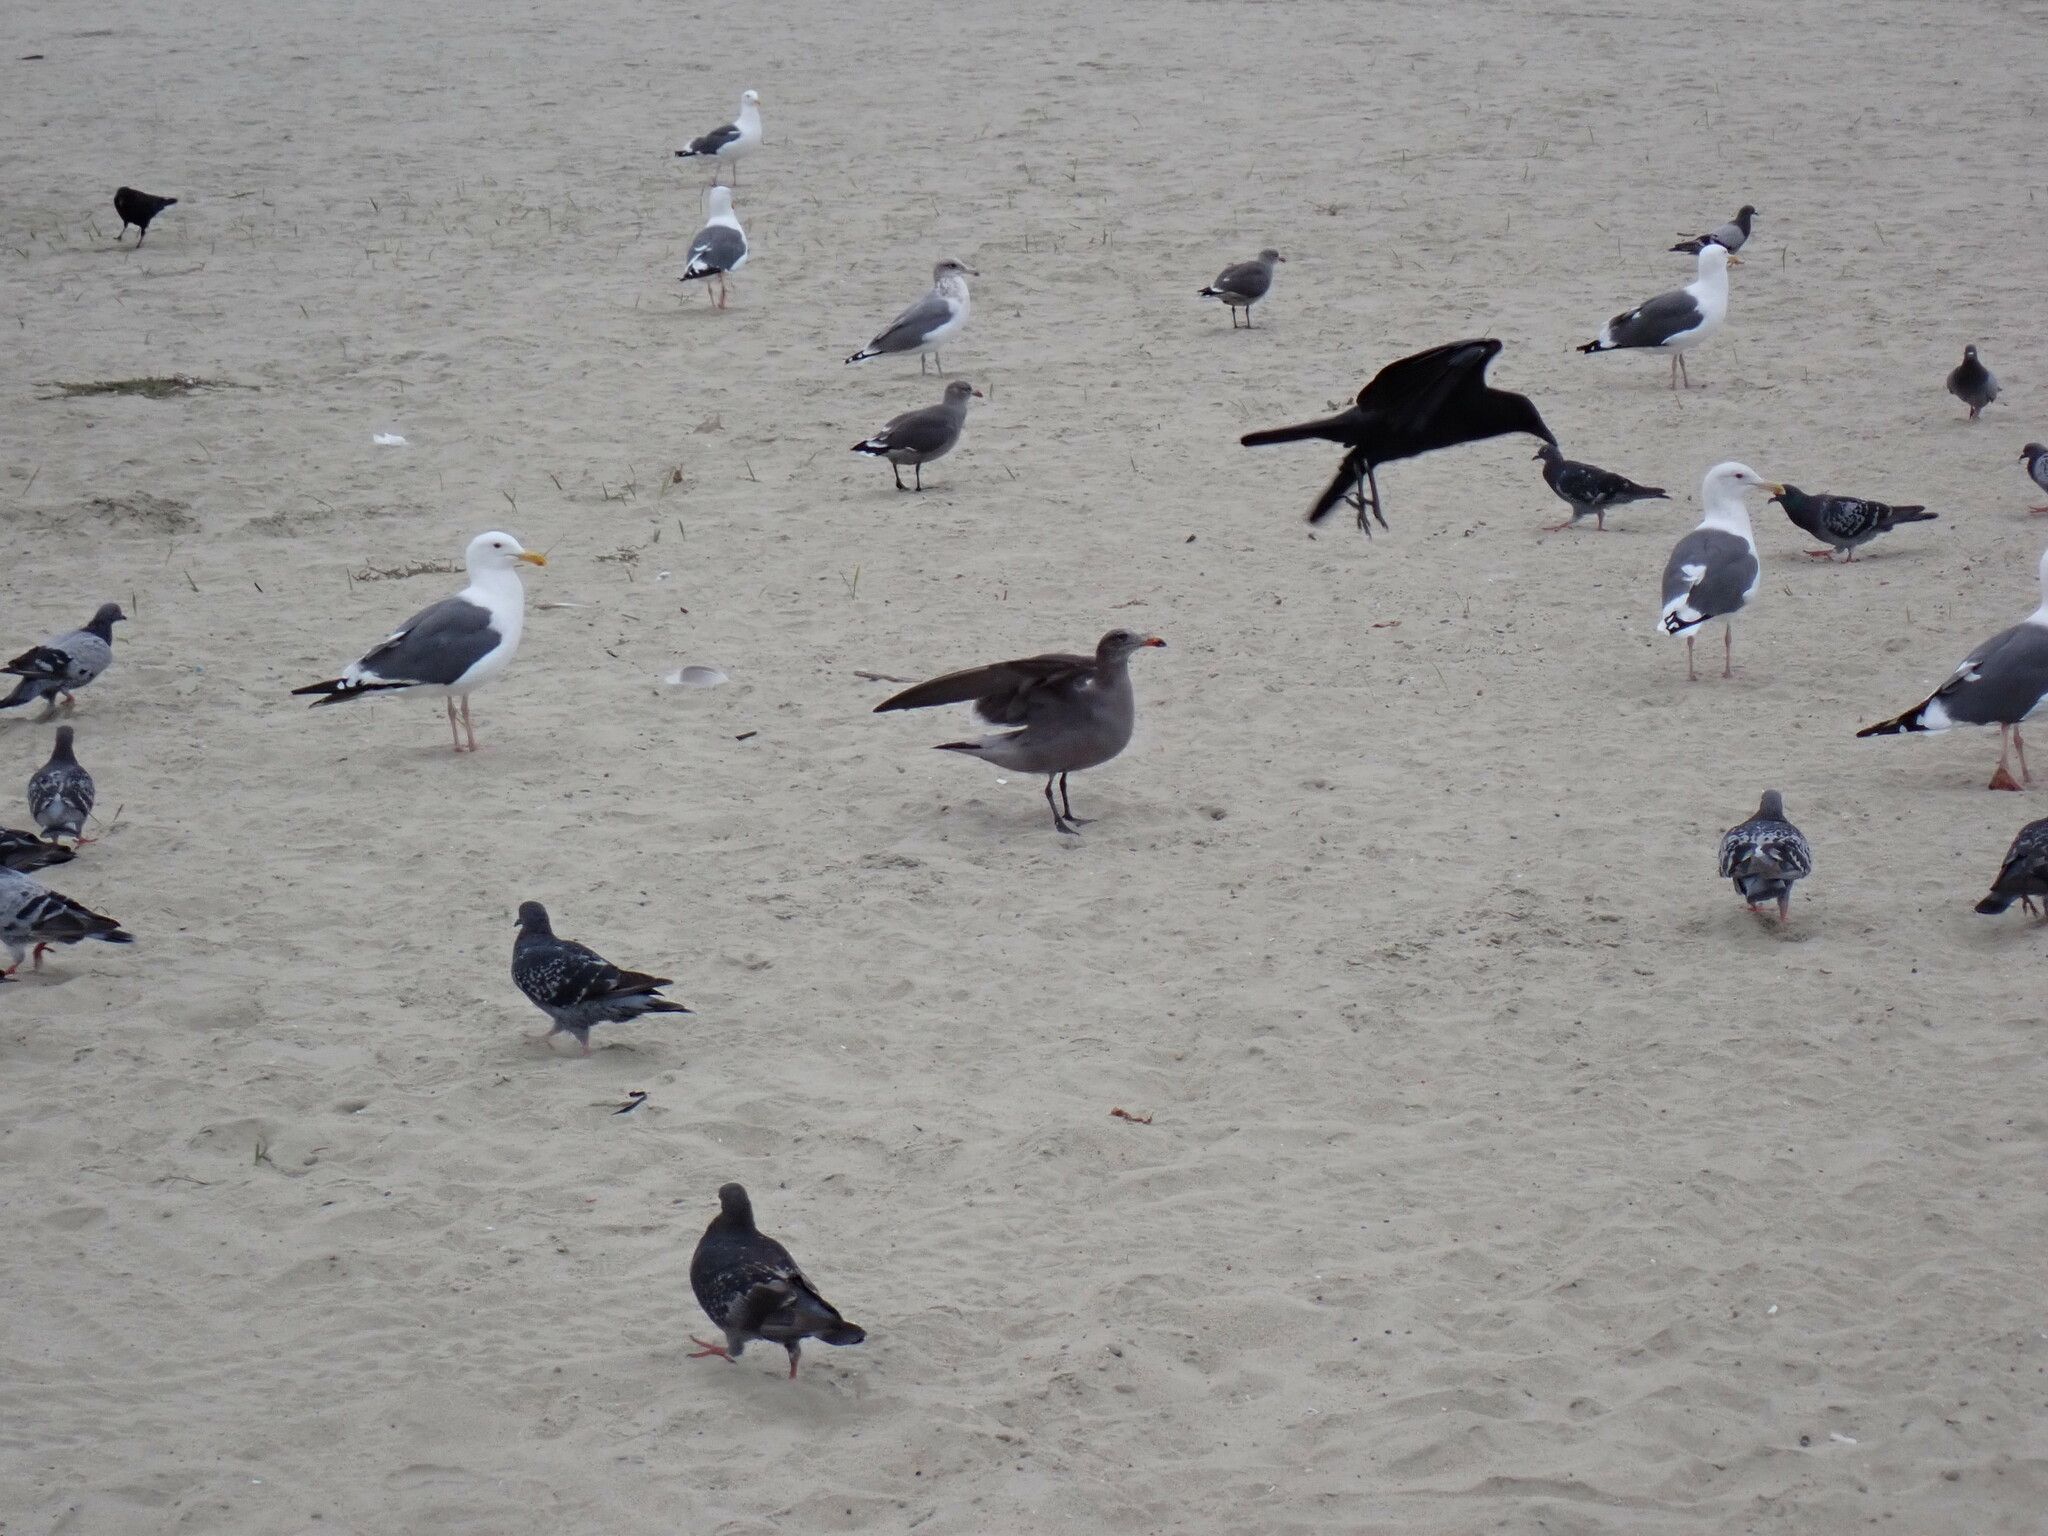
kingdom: Animalia
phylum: Chordata
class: Aves
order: Charadriiformes
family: Laridae
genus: Larus
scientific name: Larus heermanni
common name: Heermann's gull
